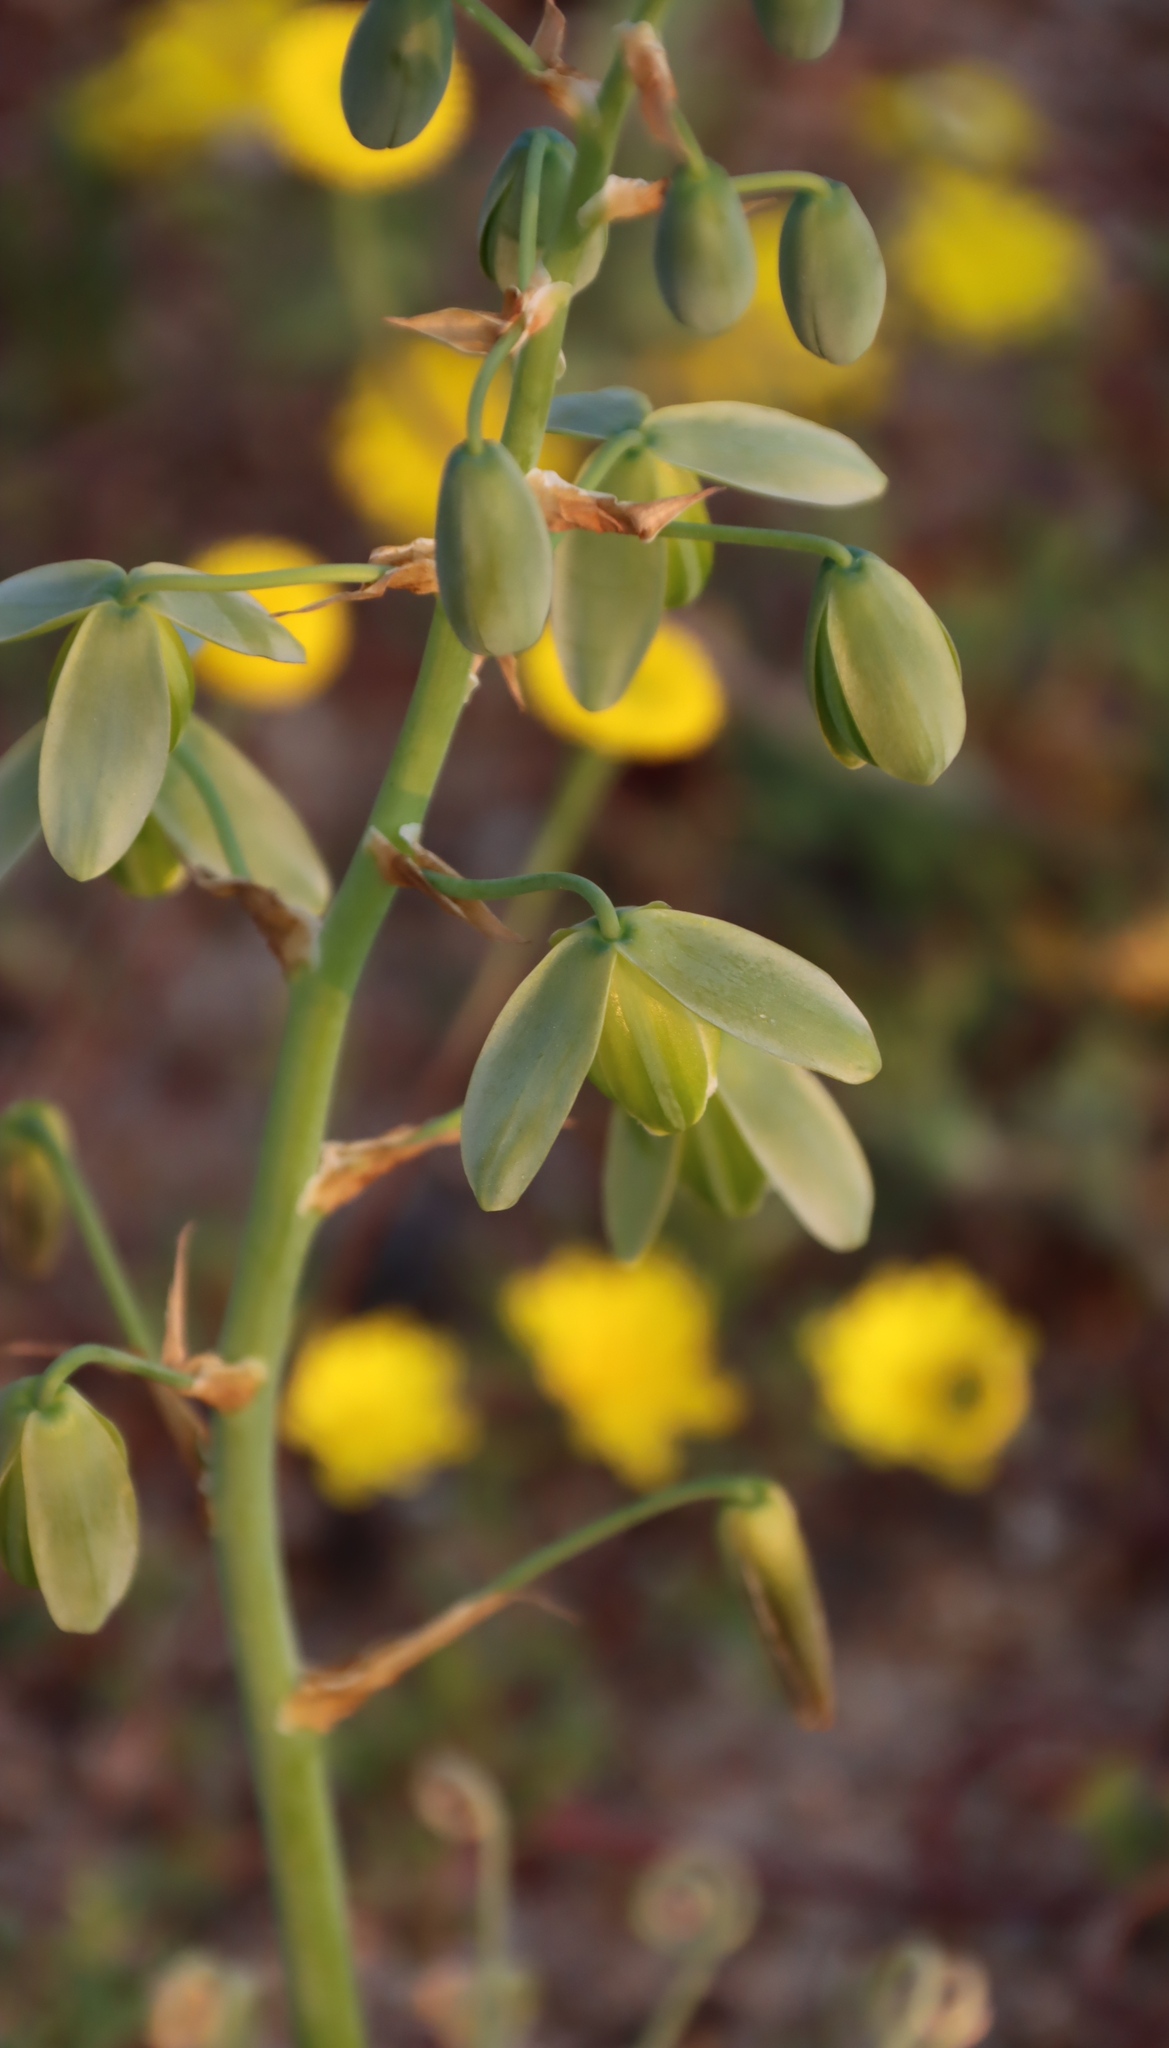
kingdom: Plantae
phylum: Tracheophyta
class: Liliopsida
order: Asparagales
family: Asparagaceae
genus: Albuca
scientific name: Albuca namaquensis
